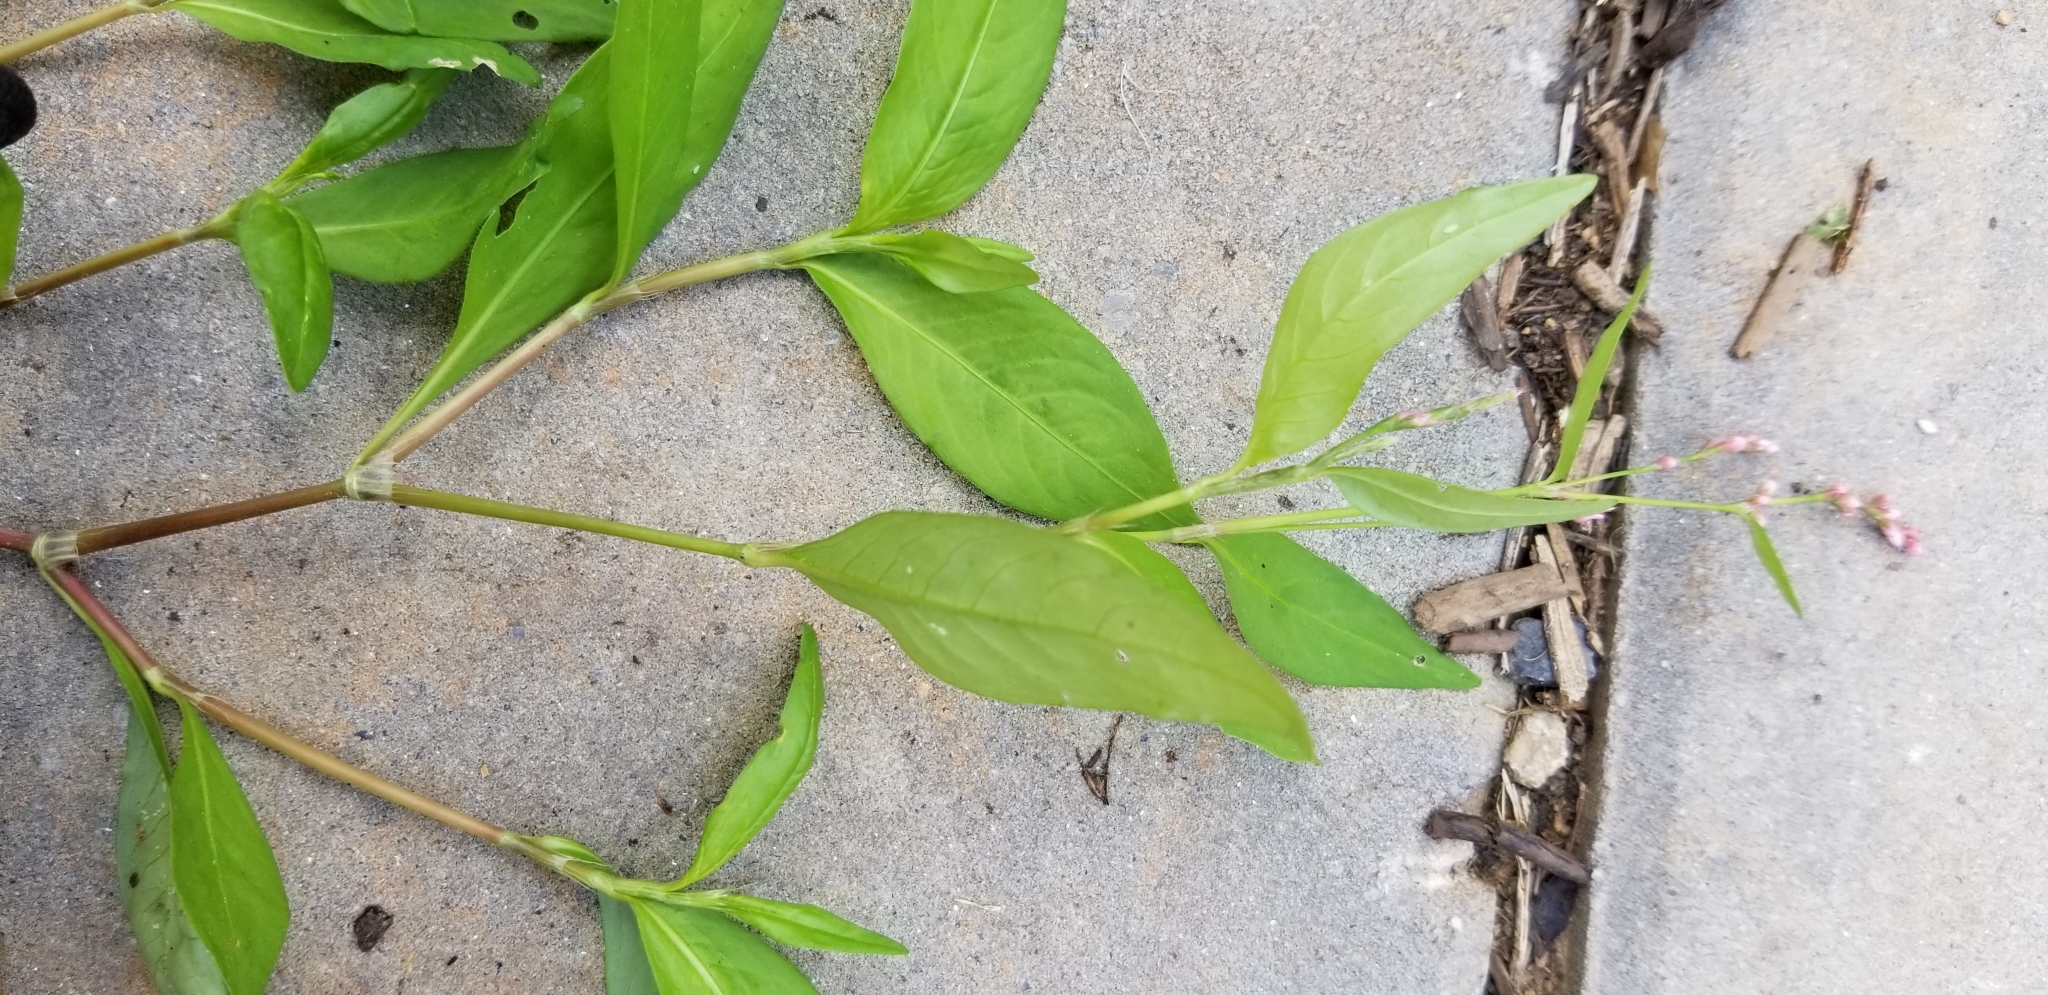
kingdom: Plantae
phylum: Tracheophyta
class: Magnoliopsida
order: Caryophyllales
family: Polygonaceae
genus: Persicaria
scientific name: Persicaria longiseta
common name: Bristly lady's-thumb
